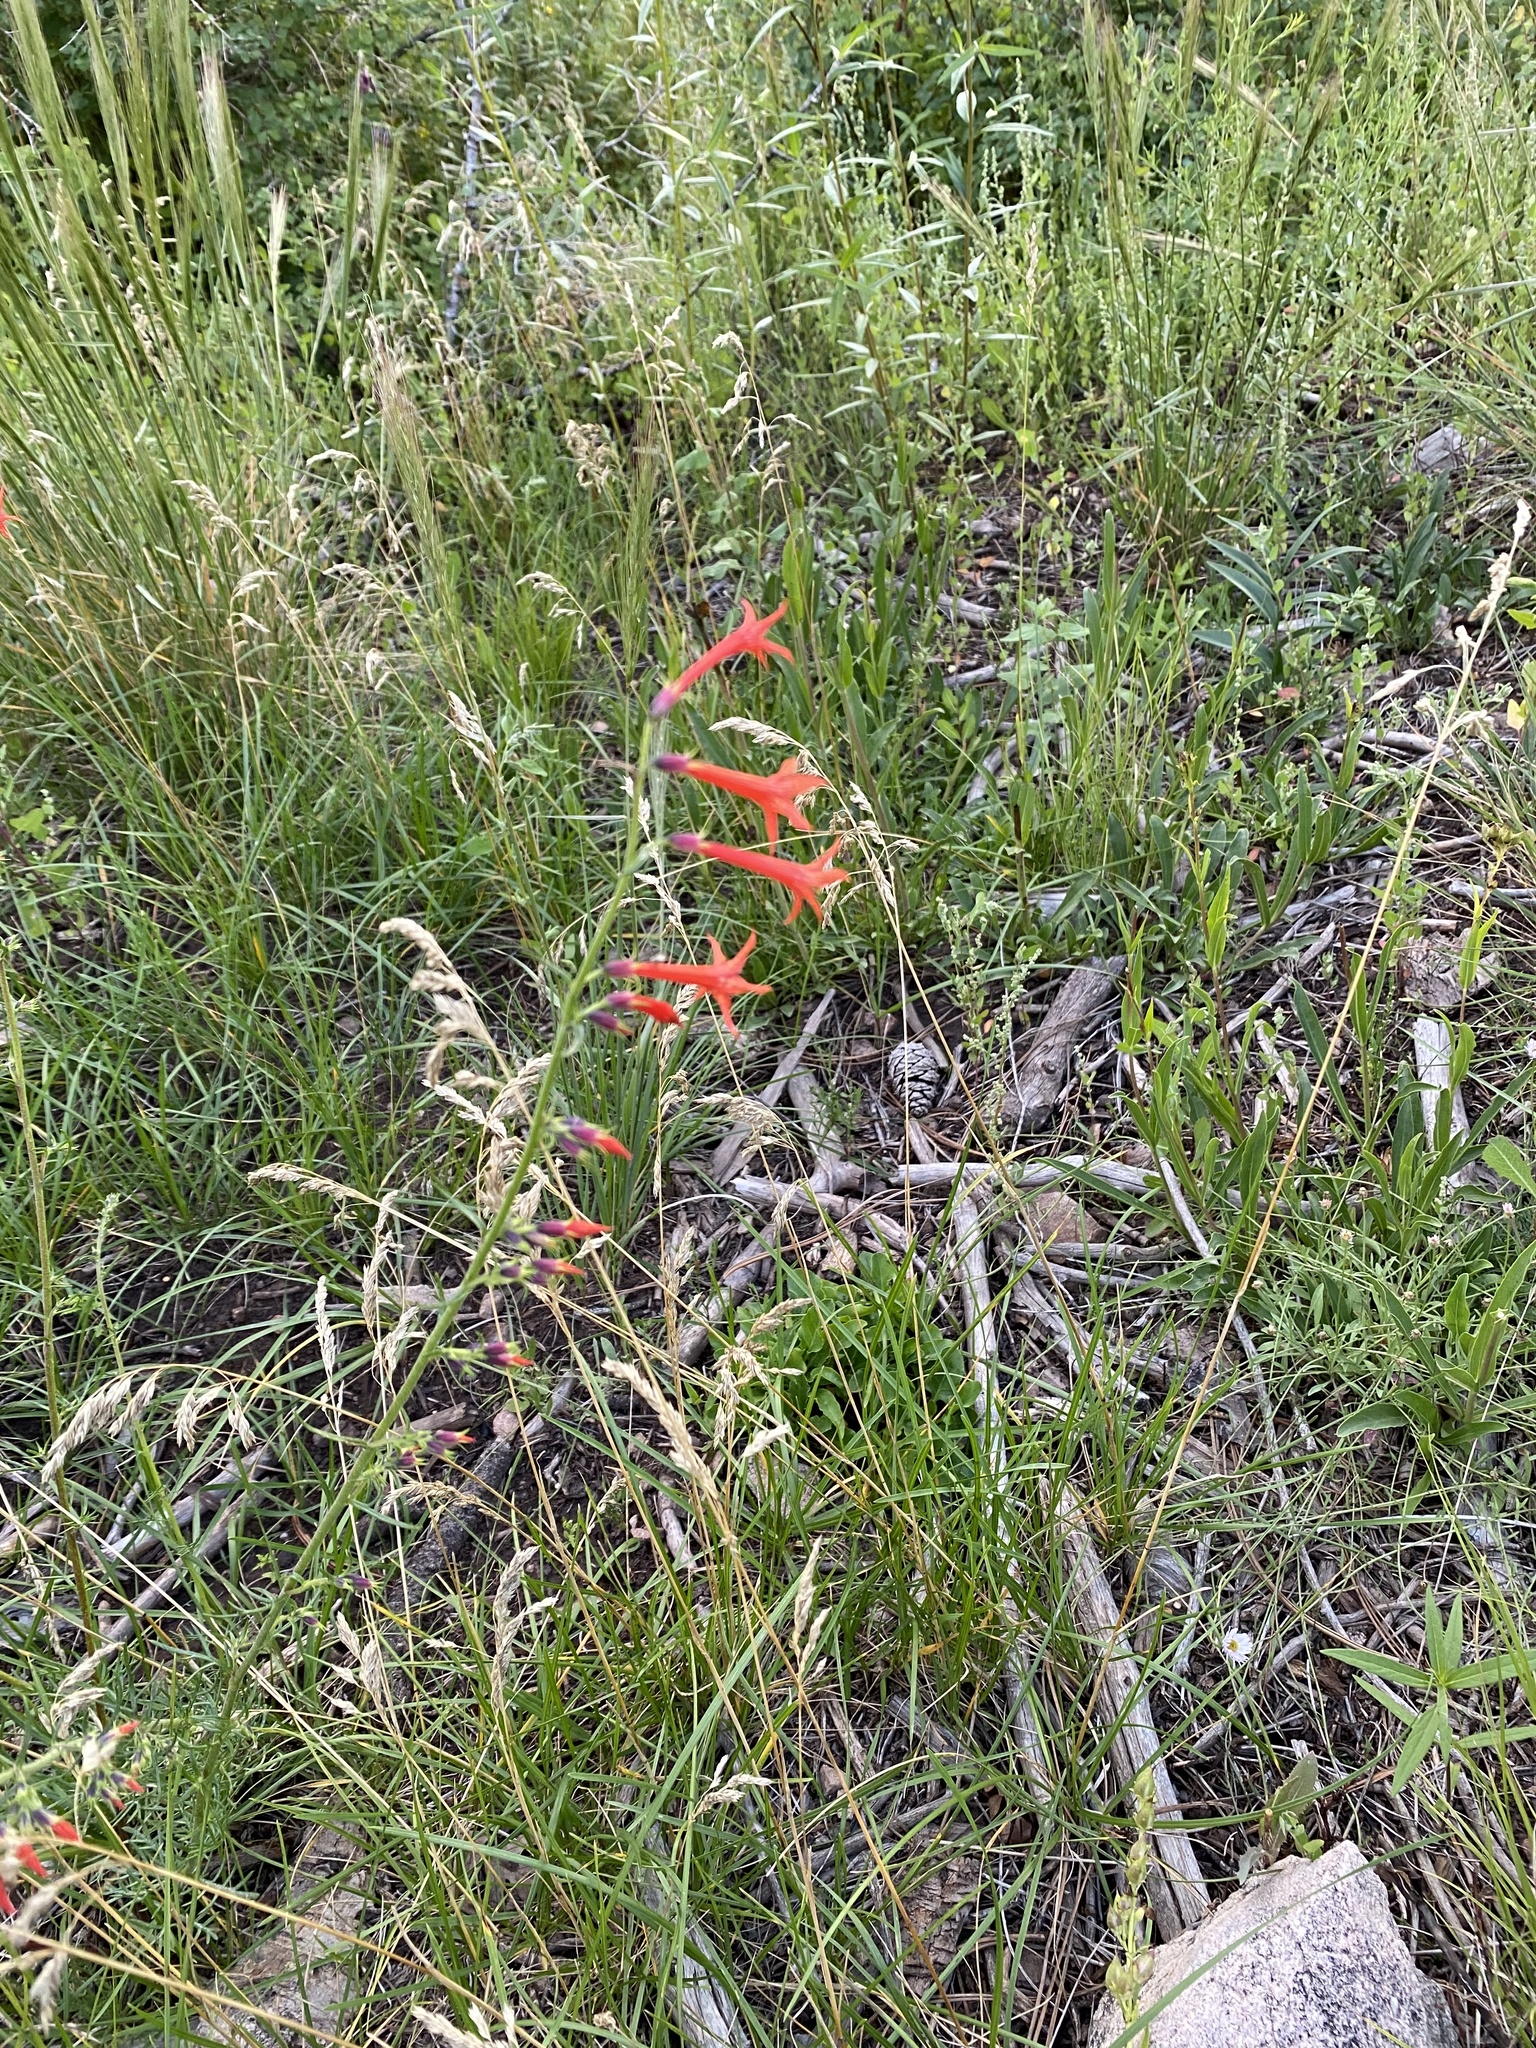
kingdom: Plantae
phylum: Tracheophyta
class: Magnoliopsida
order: Ericales
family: Polemoniaceae
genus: Ipomopsis
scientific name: Ipomopsis aggregata
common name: Scarlet gilia
